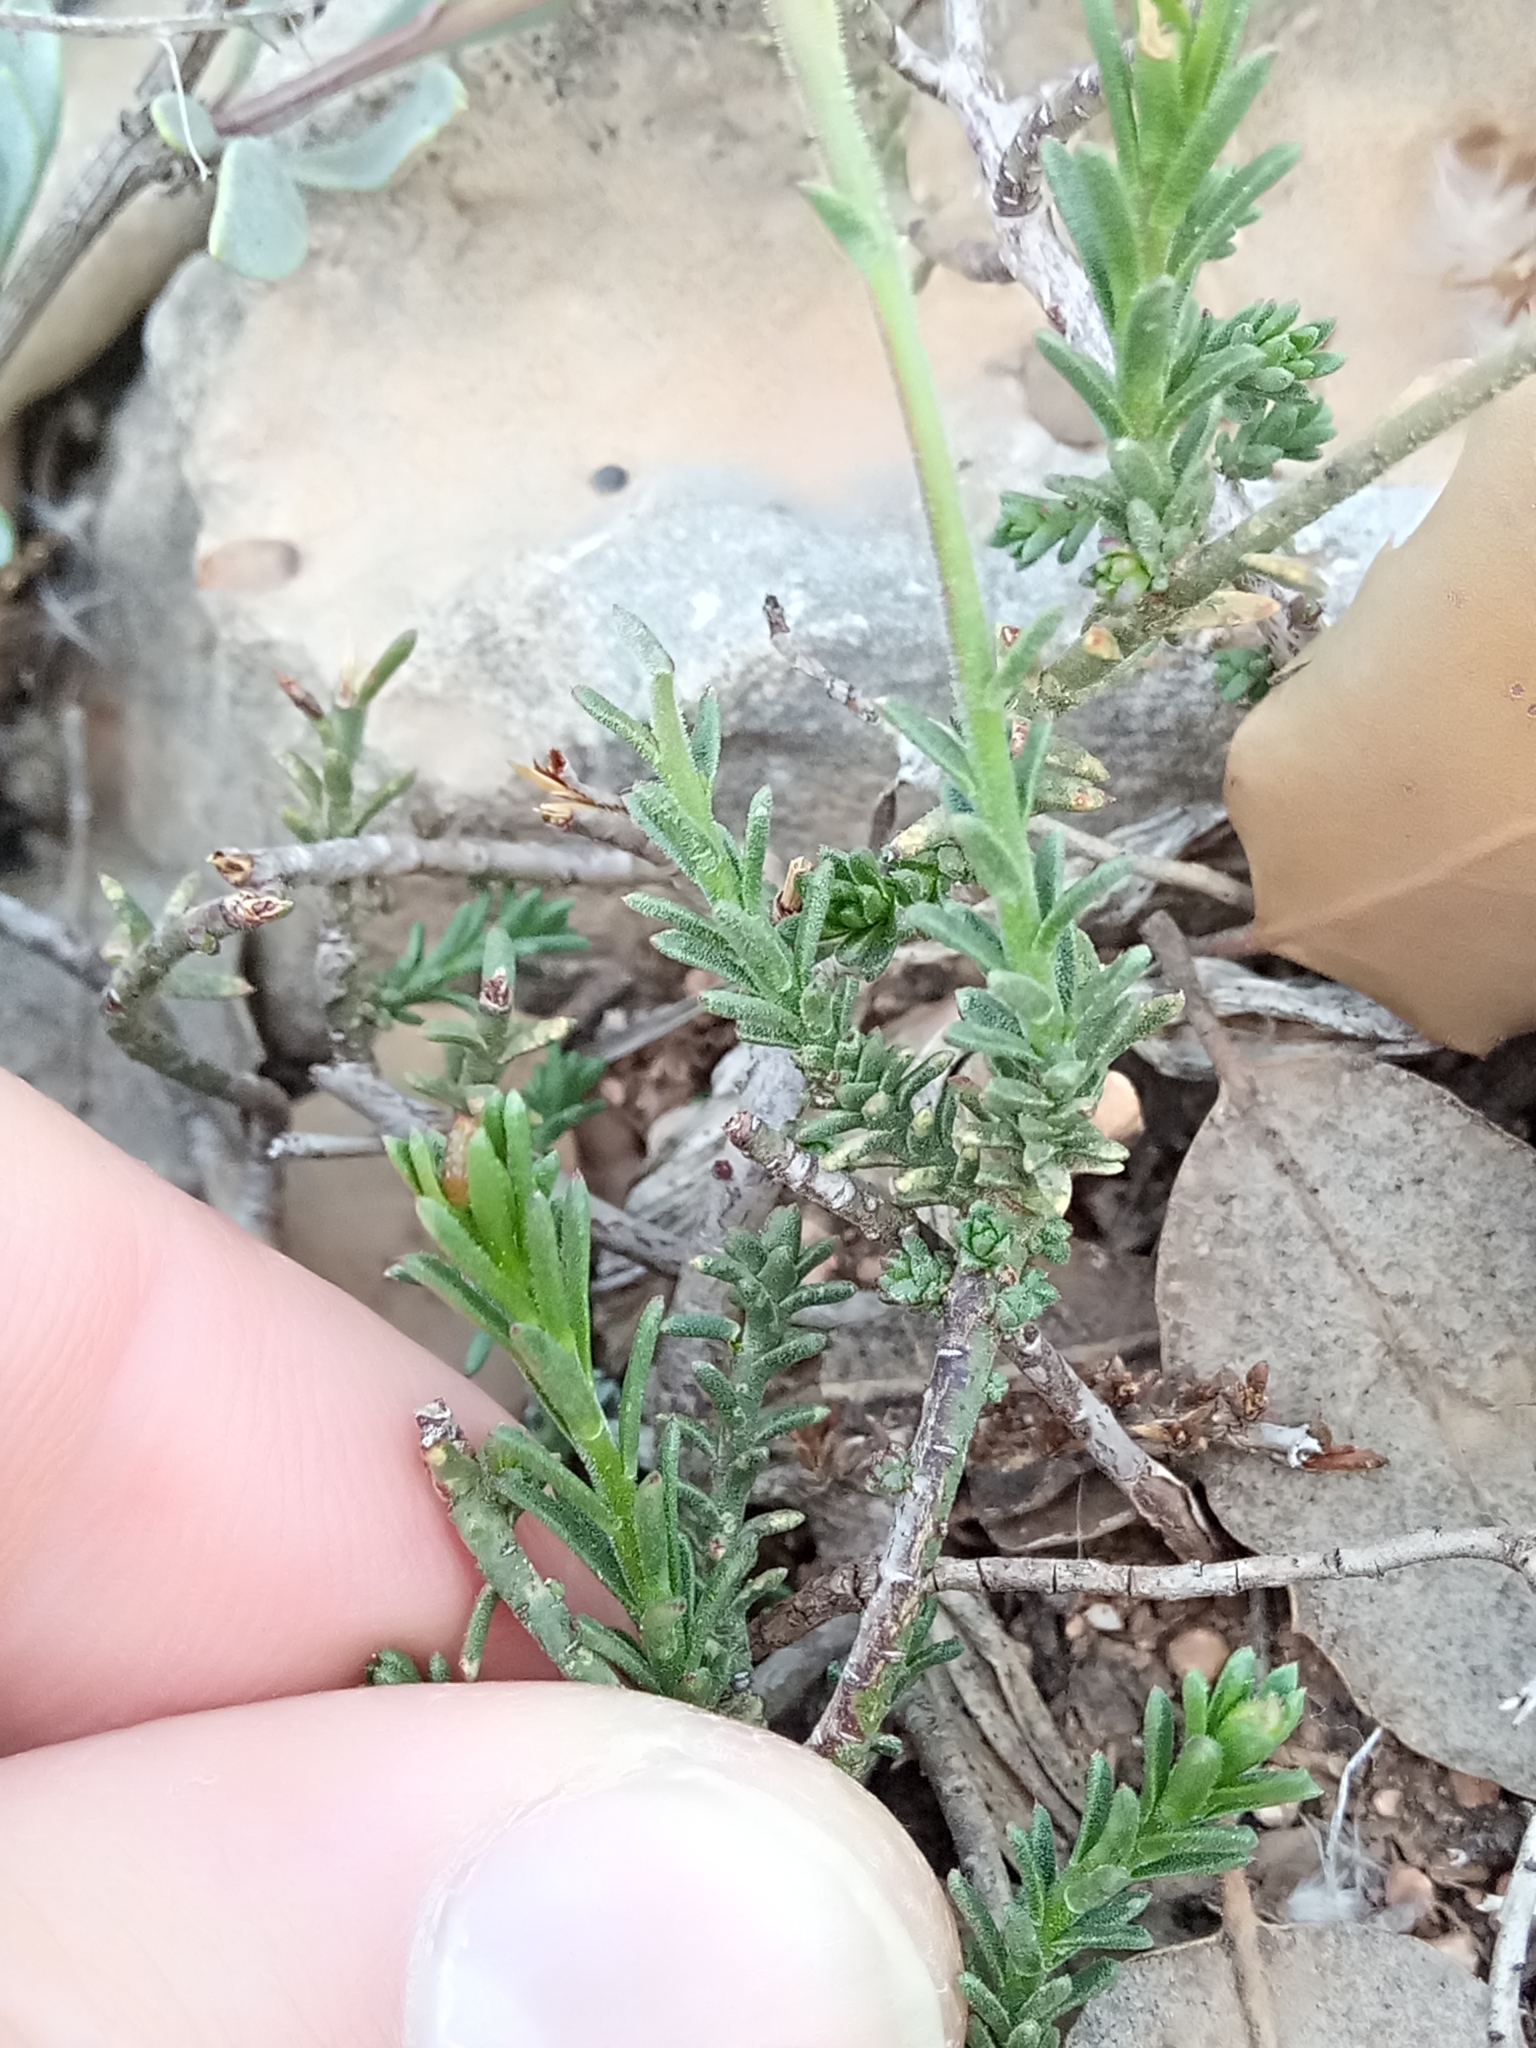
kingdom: Plantae
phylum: Tracheophyta
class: Magnoliopsida
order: Malvales
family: Cistaceae
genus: Fumana
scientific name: Fumana scoparia
